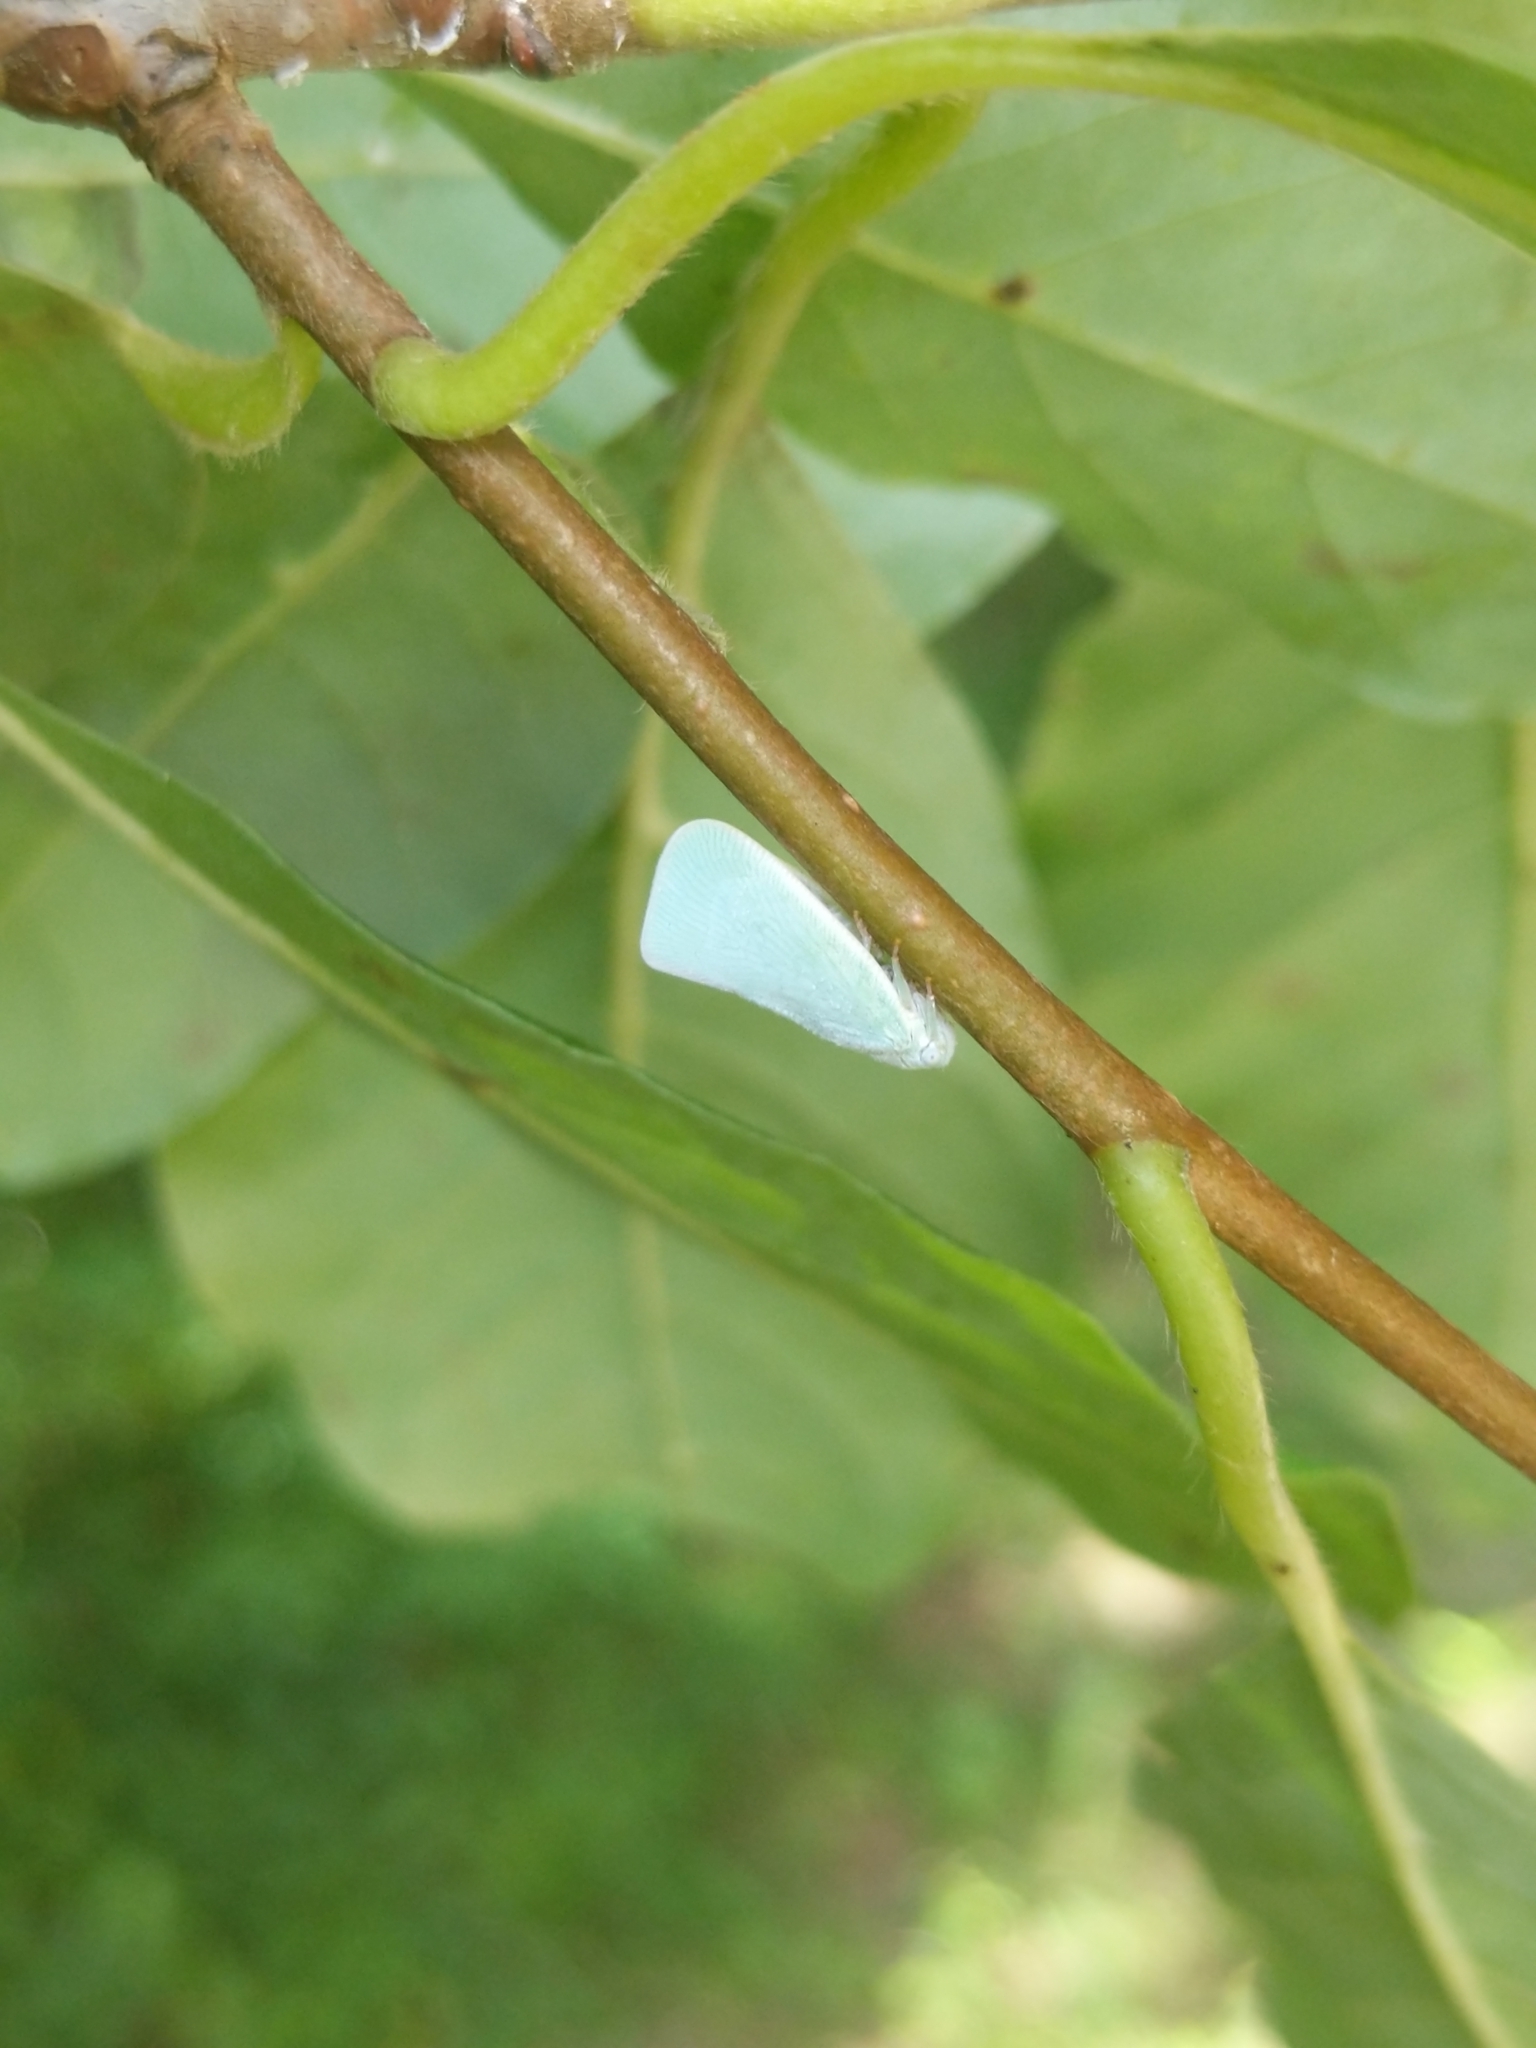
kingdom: Animalia
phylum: Arthropoda
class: Insecta
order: Hemiptera
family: Flatidae
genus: Flatormenis
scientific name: Flatormenis proxima
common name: Northern flatid planthopper
